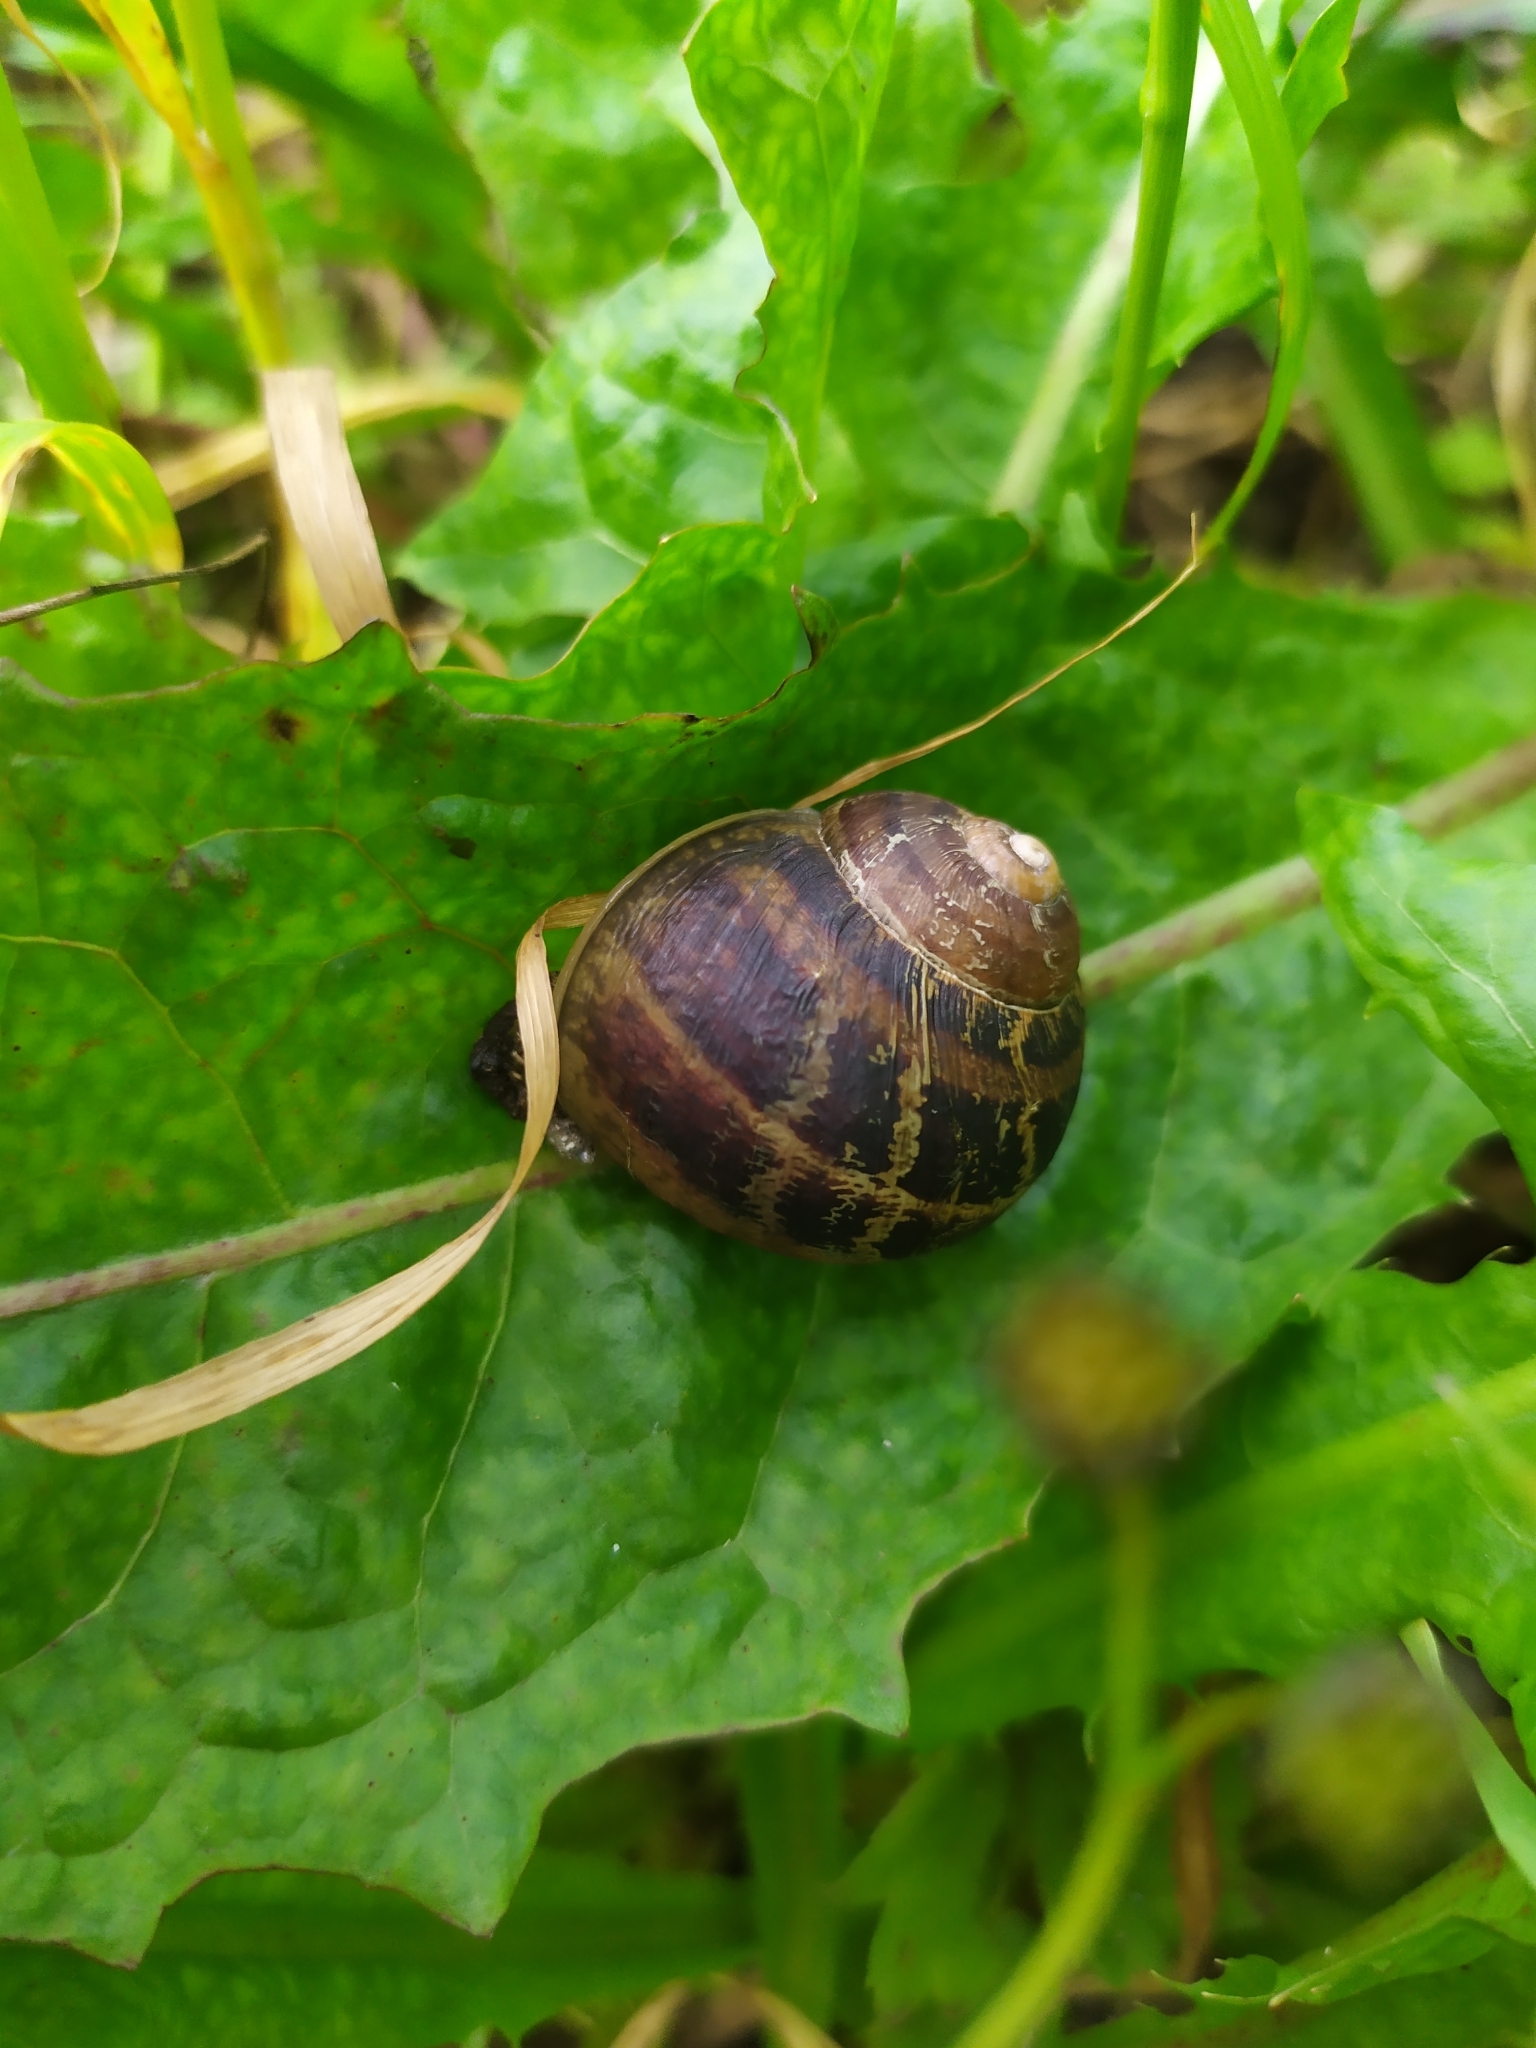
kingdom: Animalia
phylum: Mollusca
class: Gastropoda
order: Stylommatophora
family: Helicidae
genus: Cornu
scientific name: Cornu aspersum
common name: Brown garden snail
